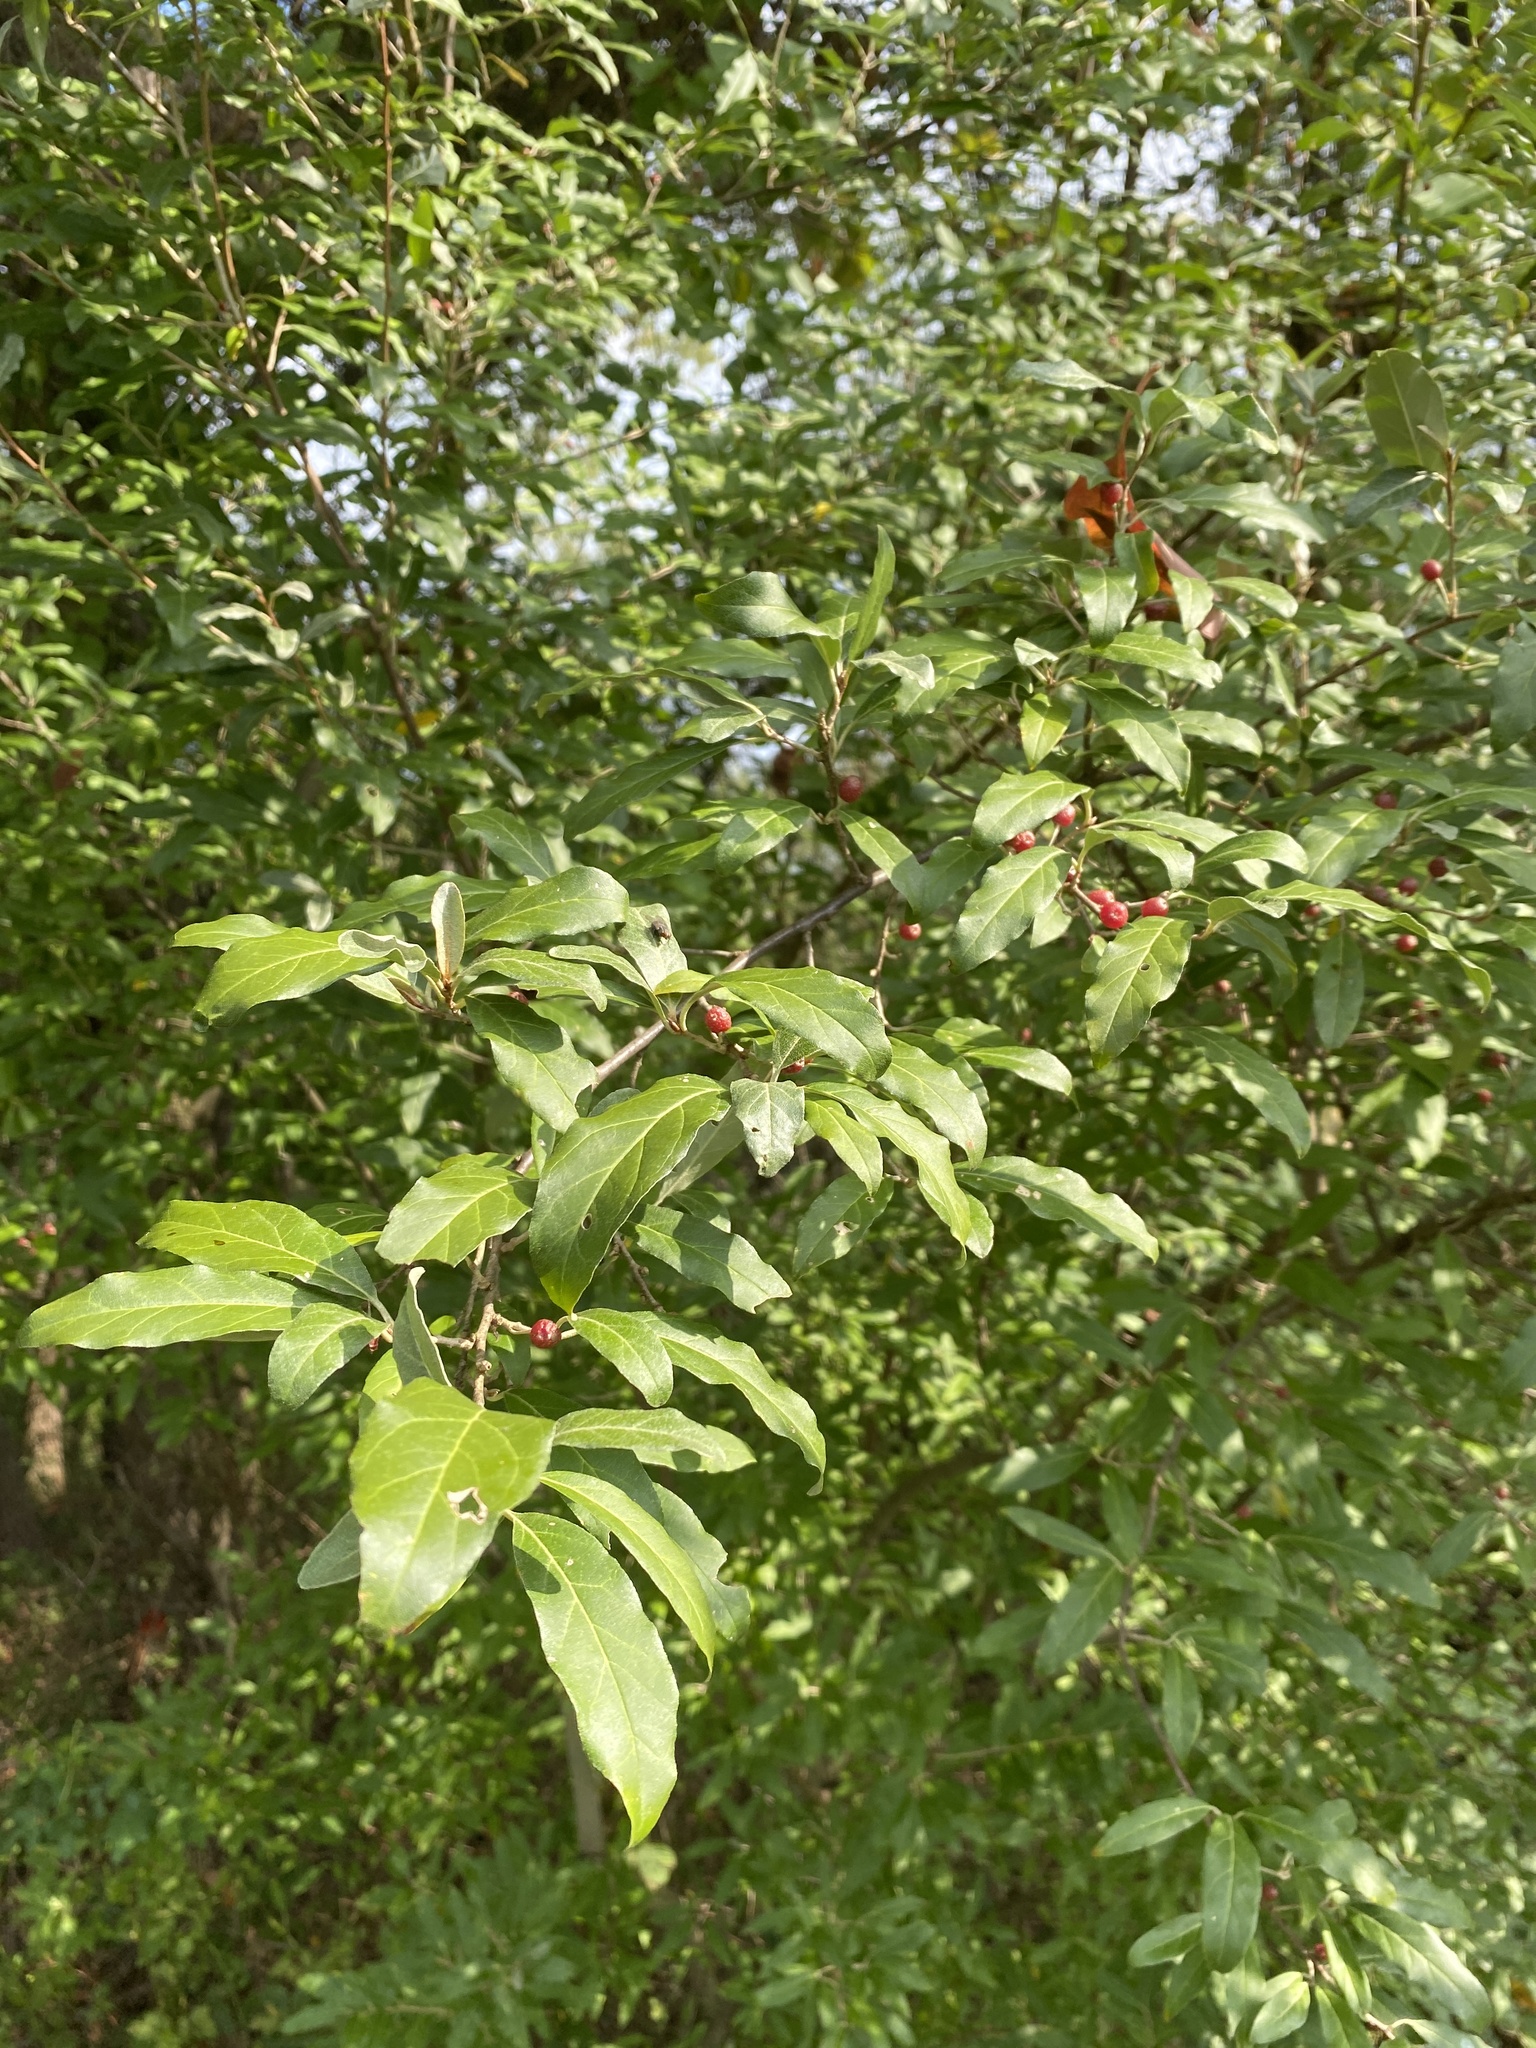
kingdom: Plantae
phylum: Tracheophyta
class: Magnoliopsida
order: Rosales
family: Elaeagnaceae
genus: Elaeagnus
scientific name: Elaeagnus umbellata
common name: Autumn olive
